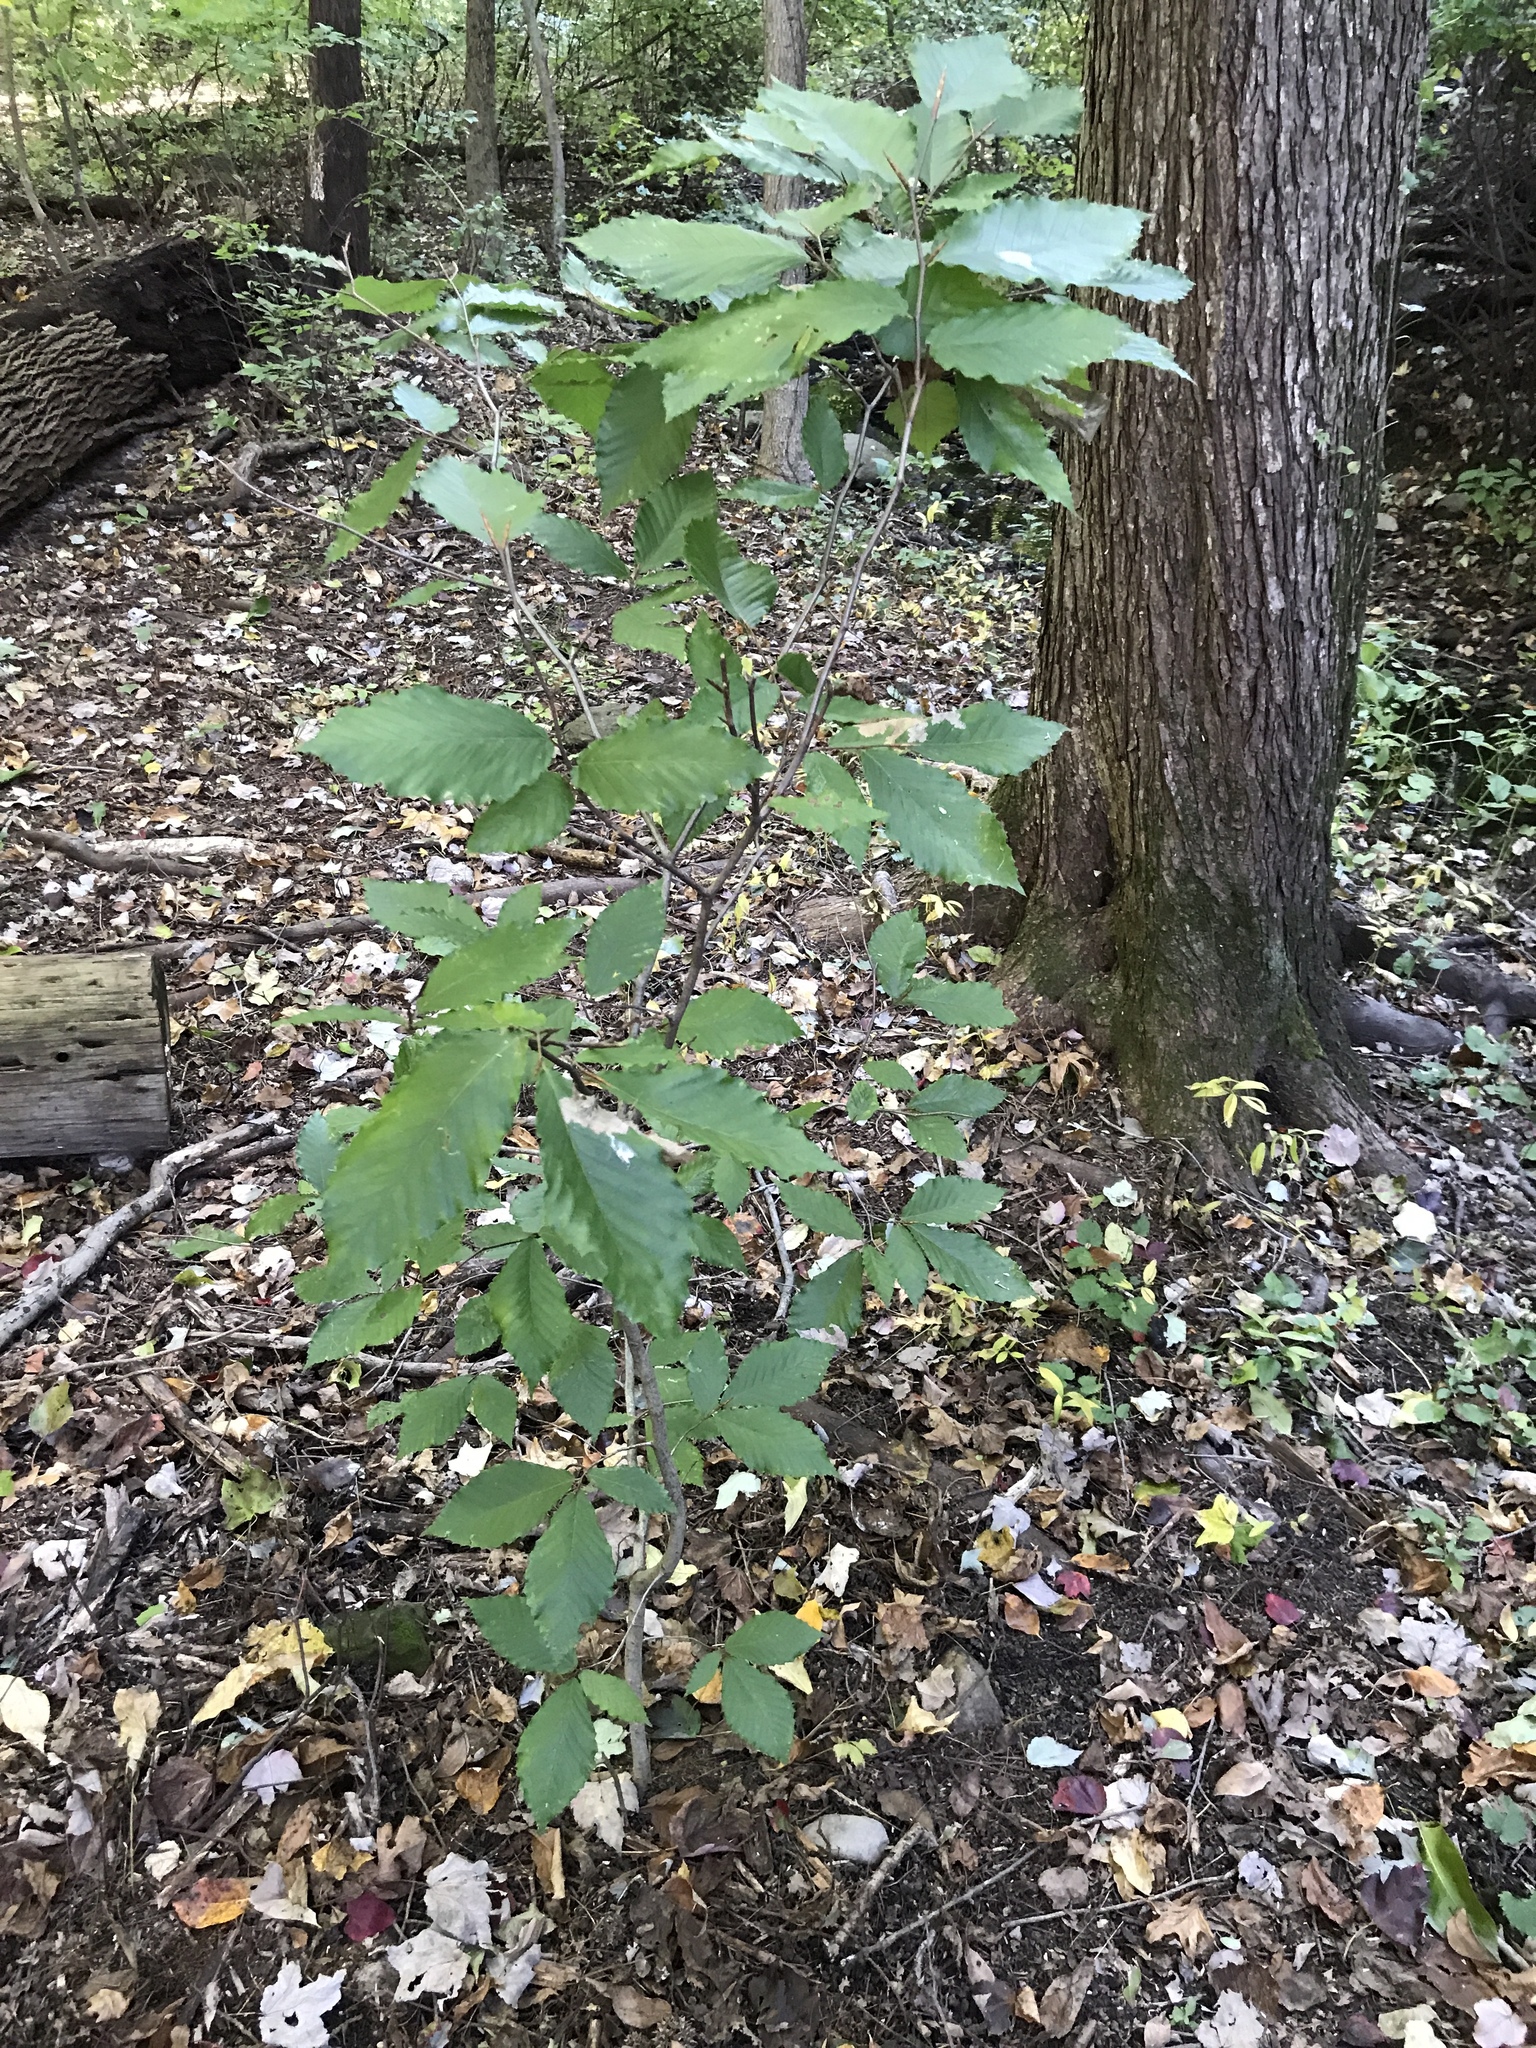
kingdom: Plantae
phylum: Tracheophyta
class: Magnoliopsida
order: Fagales
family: Fagaceae
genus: Fagus
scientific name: Fagus grandifolia
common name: American beech
